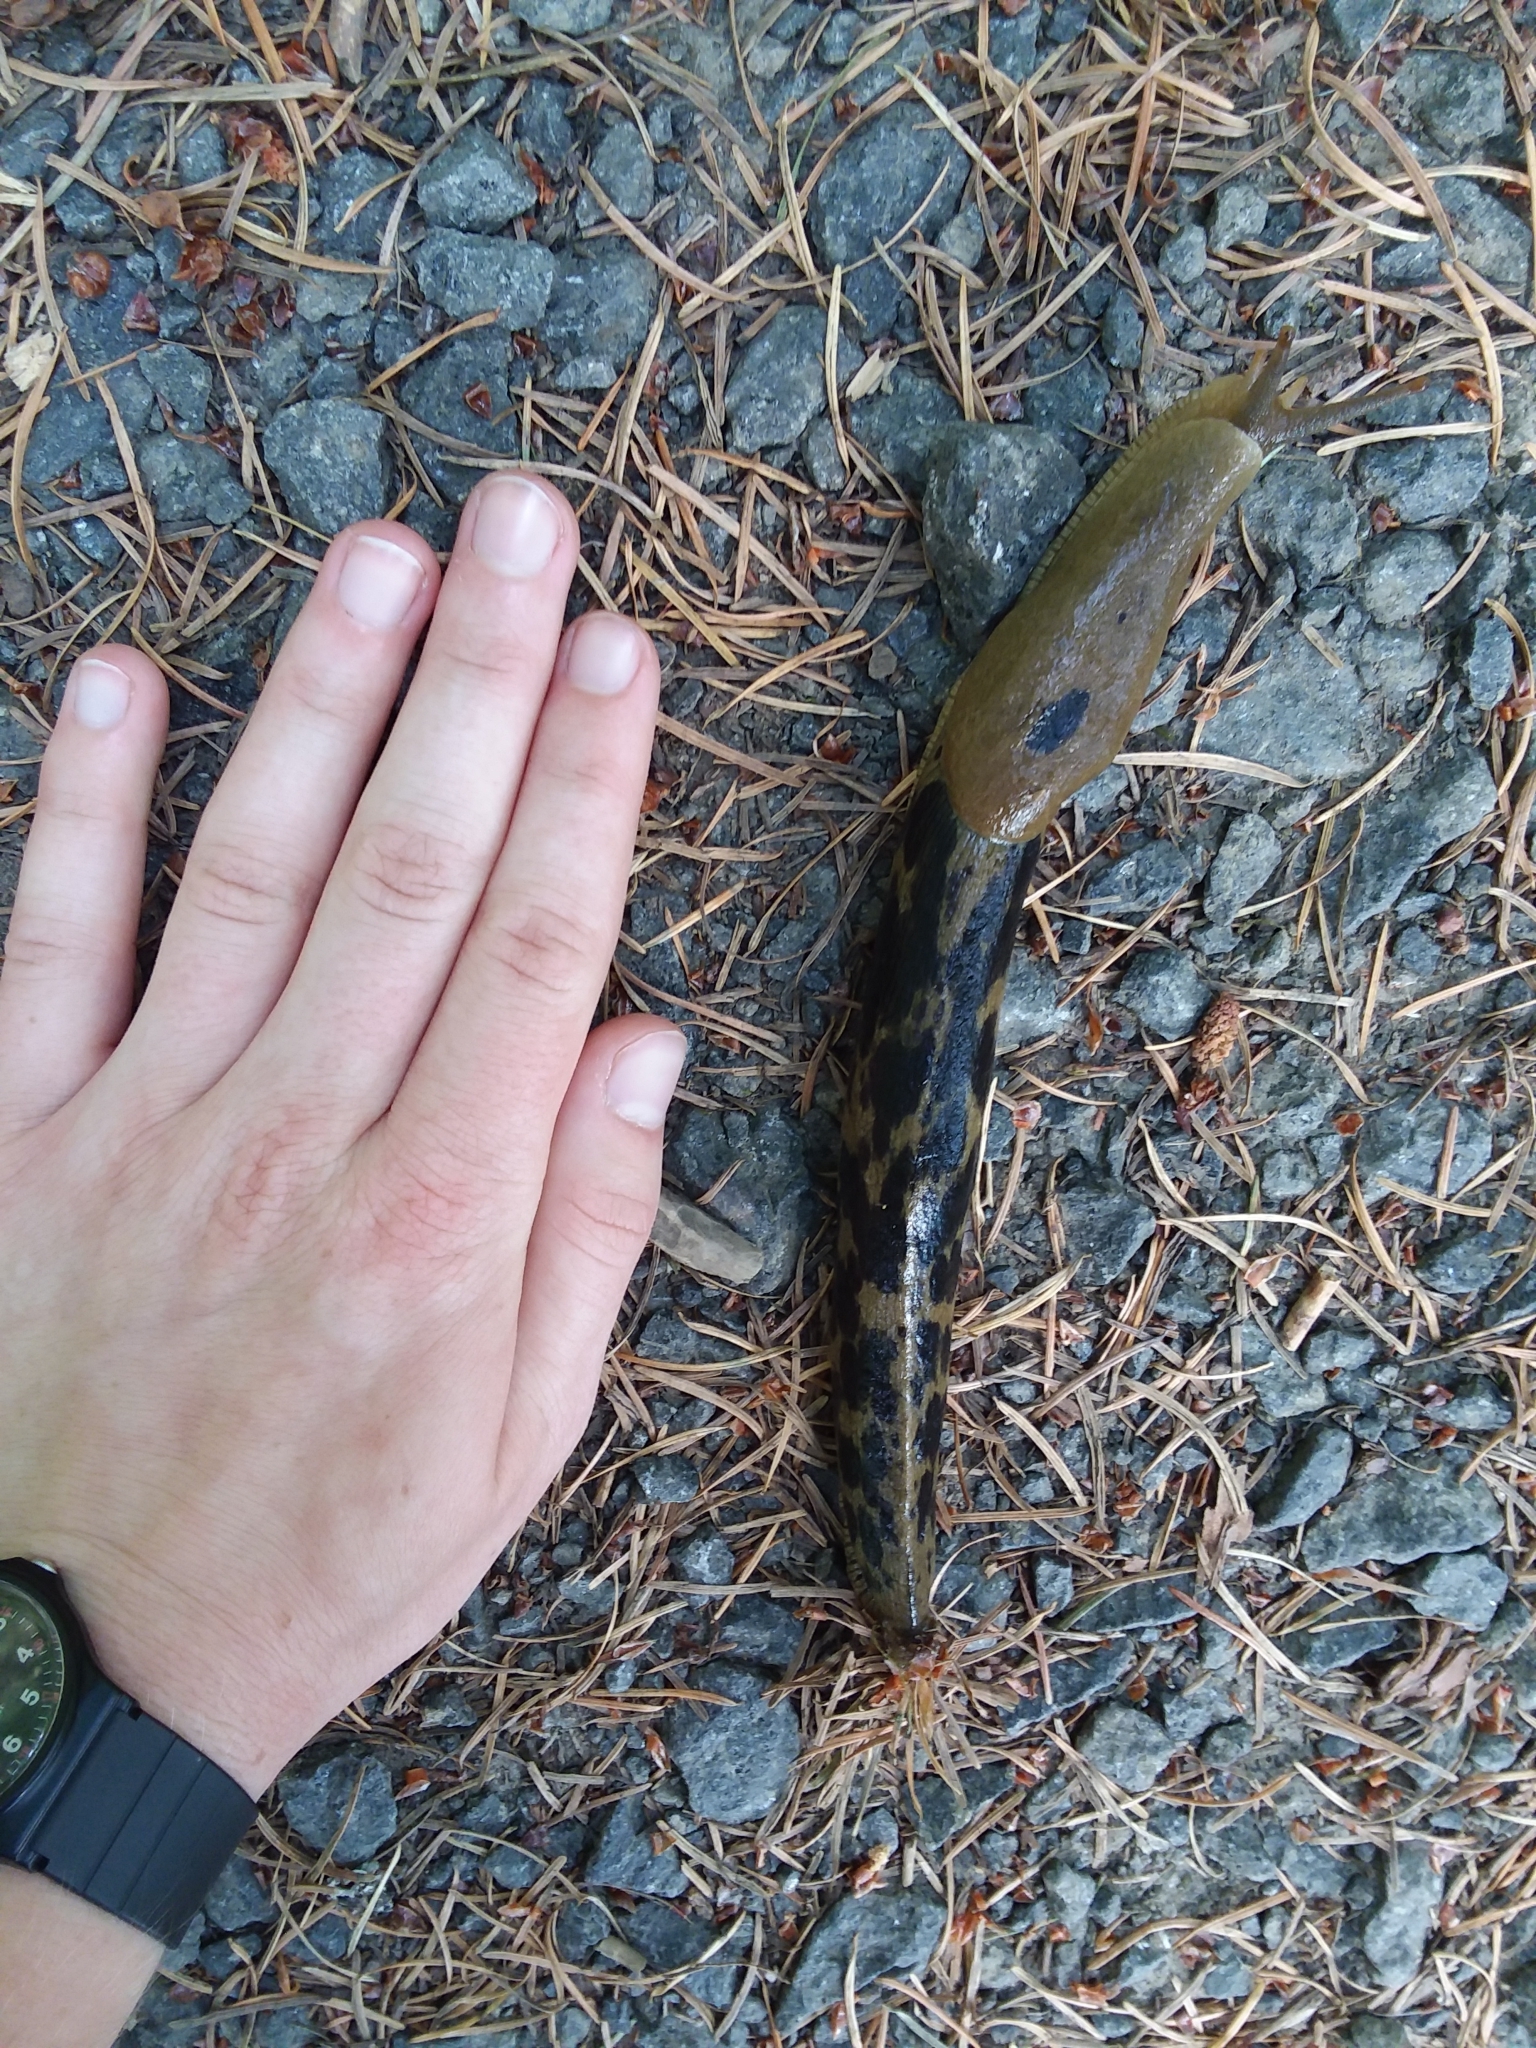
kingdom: Animalia
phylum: Mollusca
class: Gastropoda
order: Stylommatophora
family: Ariolimacidae
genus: Ariolimax
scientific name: Ariolimax columbianus
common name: Pacific banana slug
